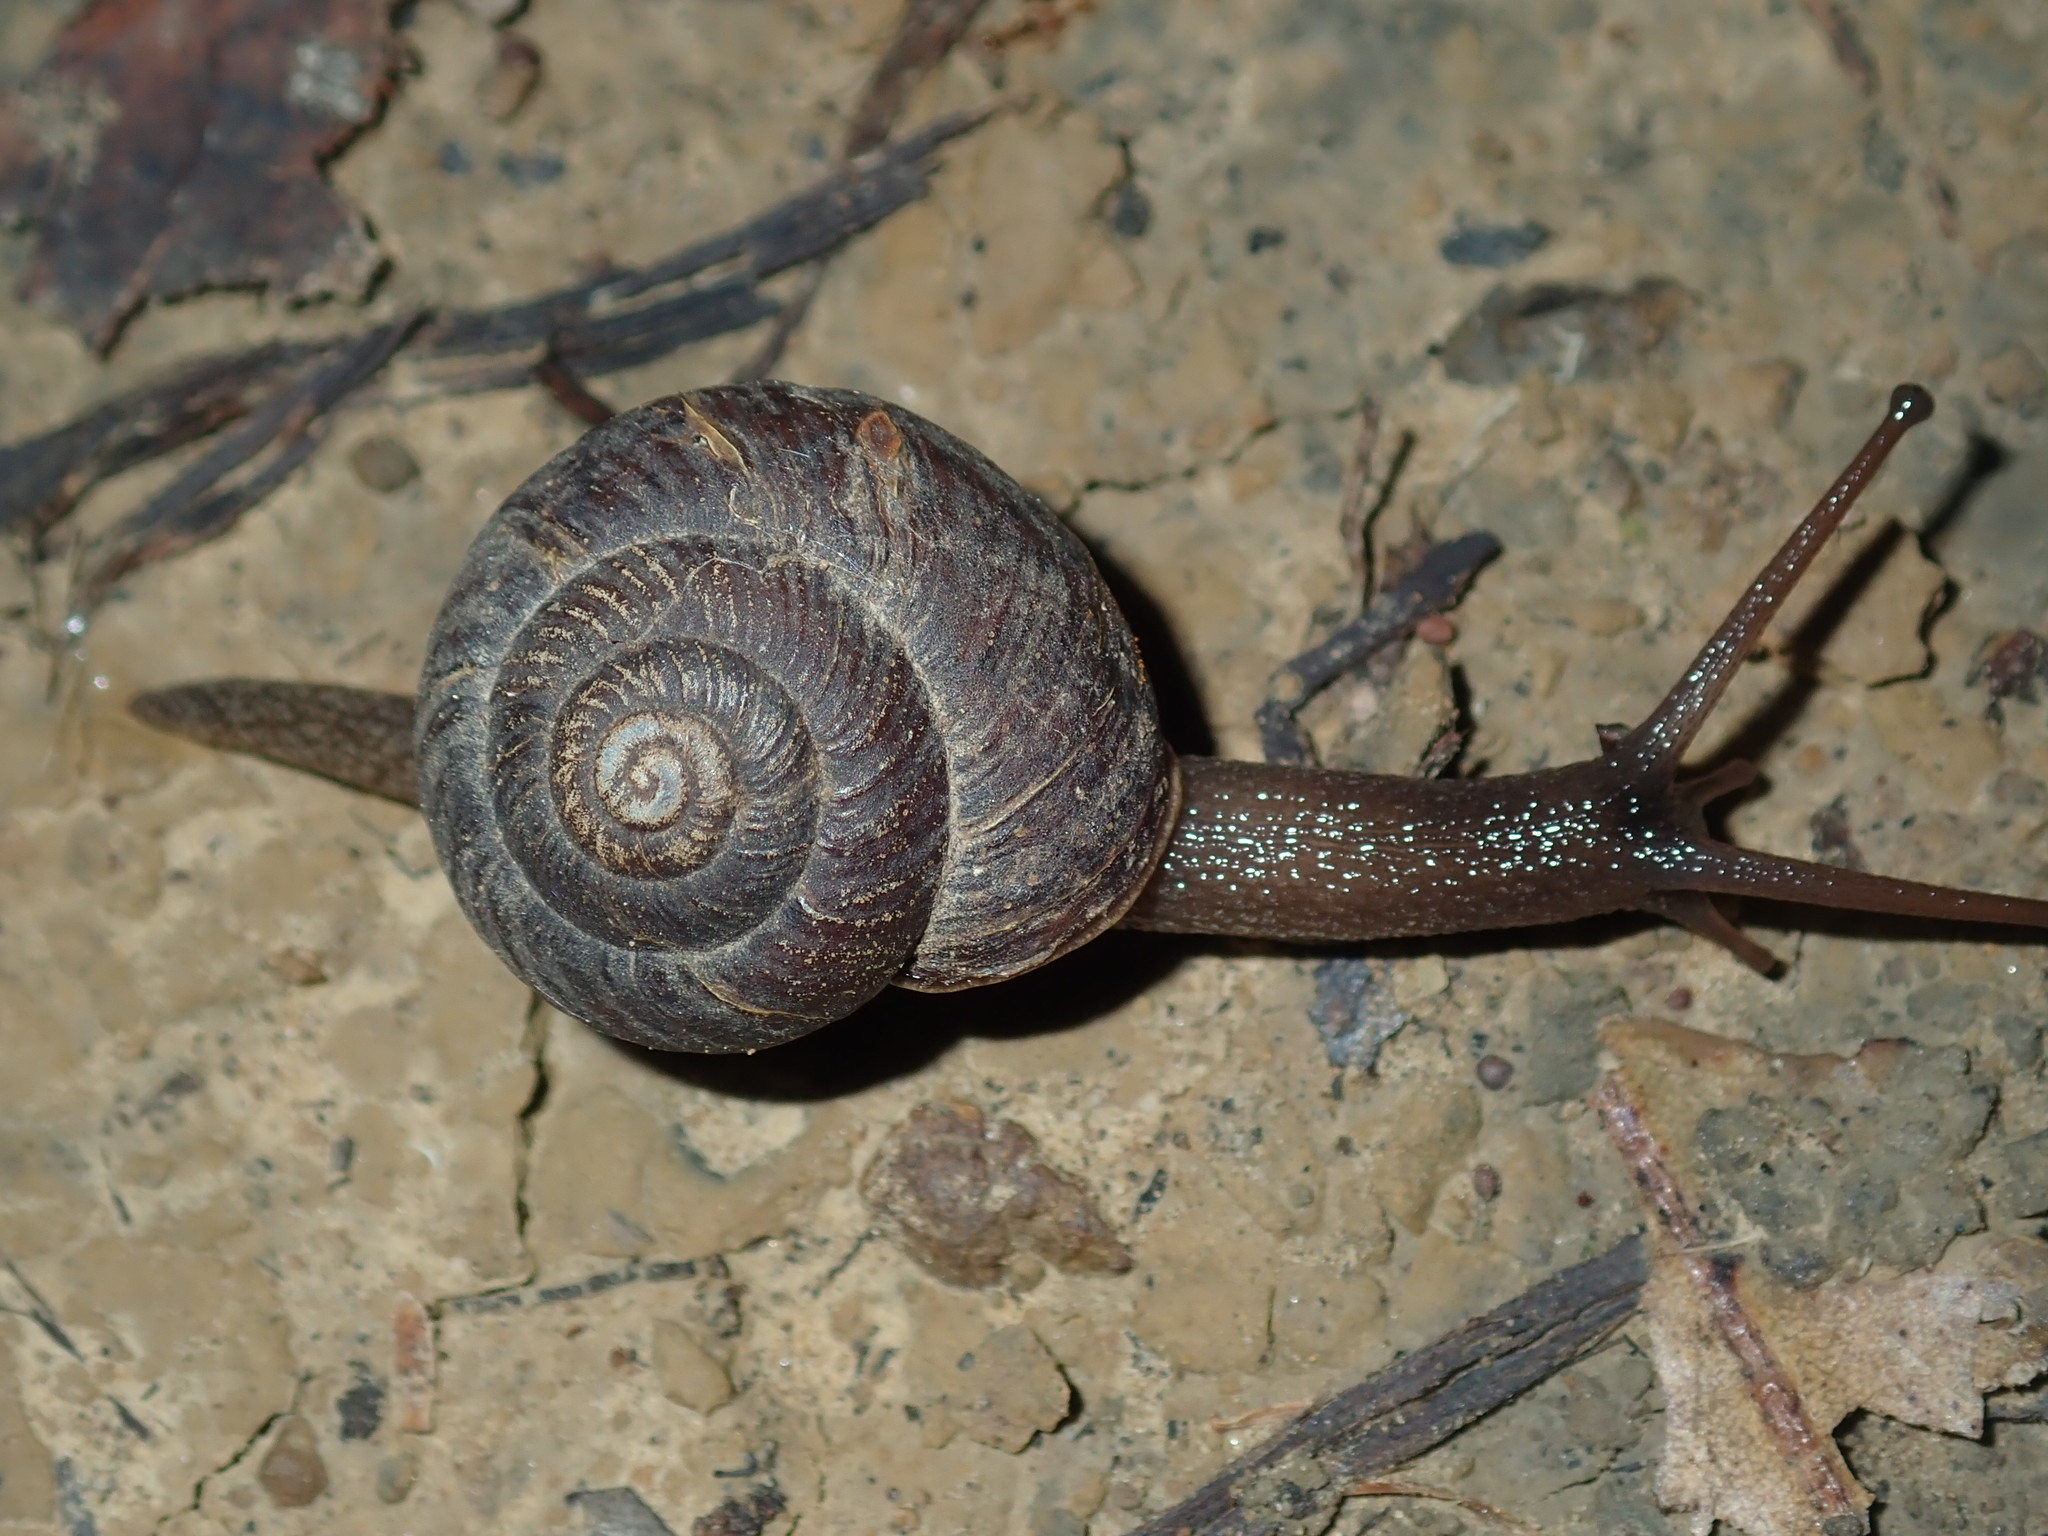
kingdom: Animalia
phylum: Mollusca
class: Gastropoda
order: Stylommatophora
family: Camaenidae
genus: Sauroconcha
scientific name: Sauroconcha sheai
